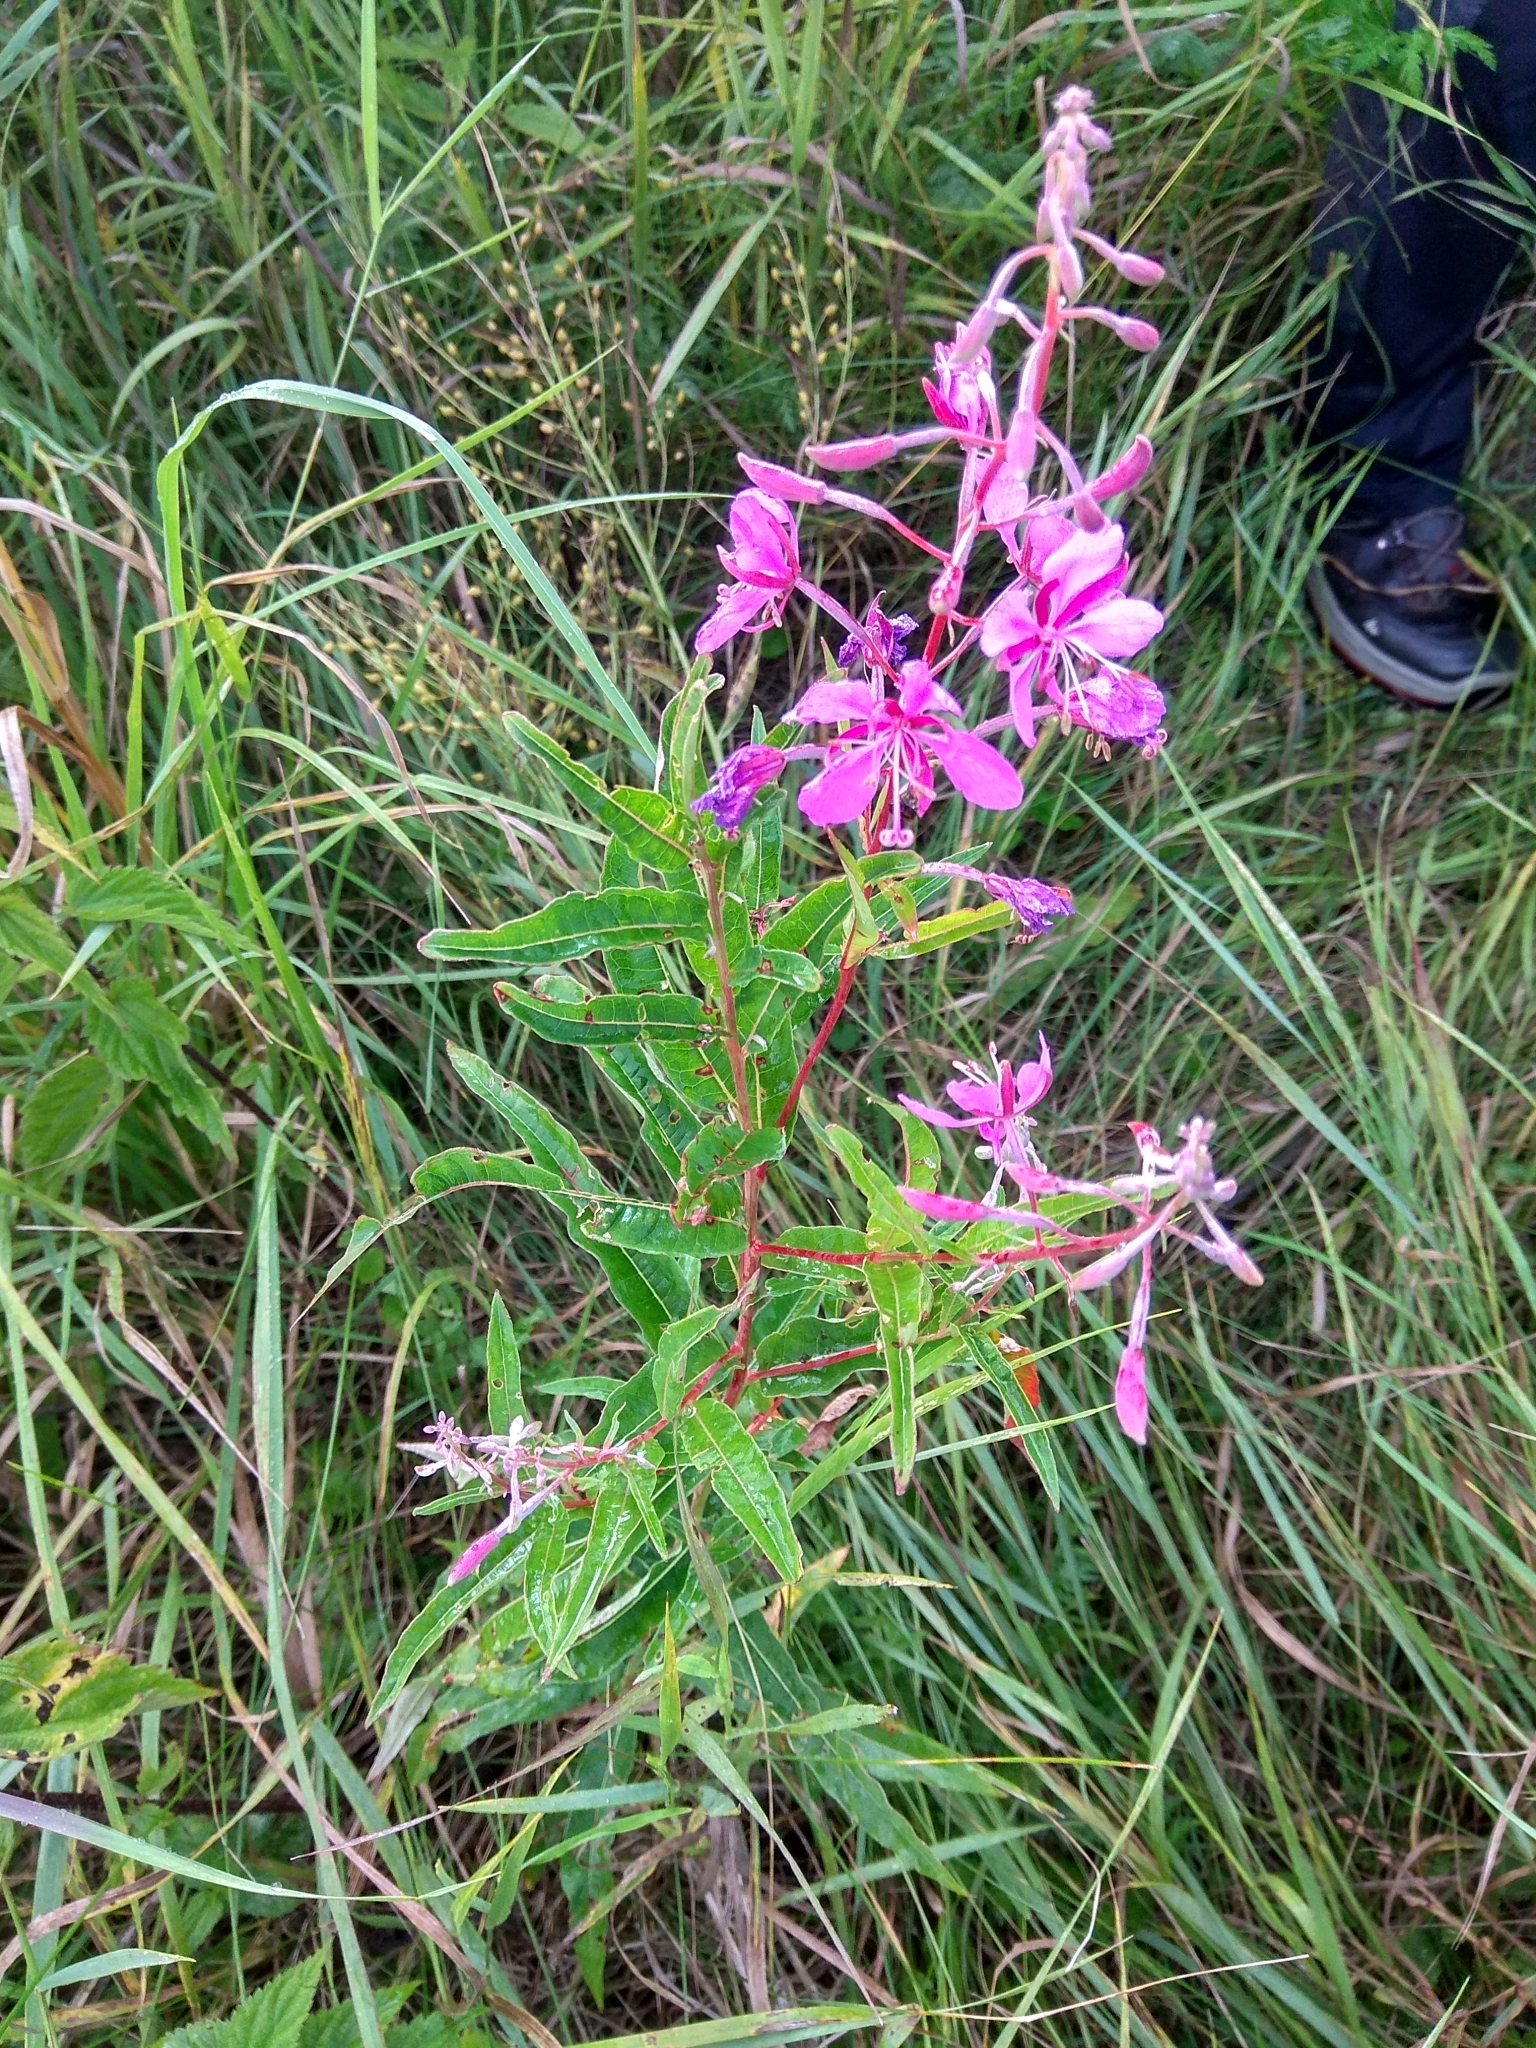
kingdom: Plantae
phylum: Tracheophyta
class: Magnoliopsida
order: Myrtales
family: Onagraceae
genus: Chamaenerion
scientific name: Chamaenerion angustifolium
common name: Fireweed
